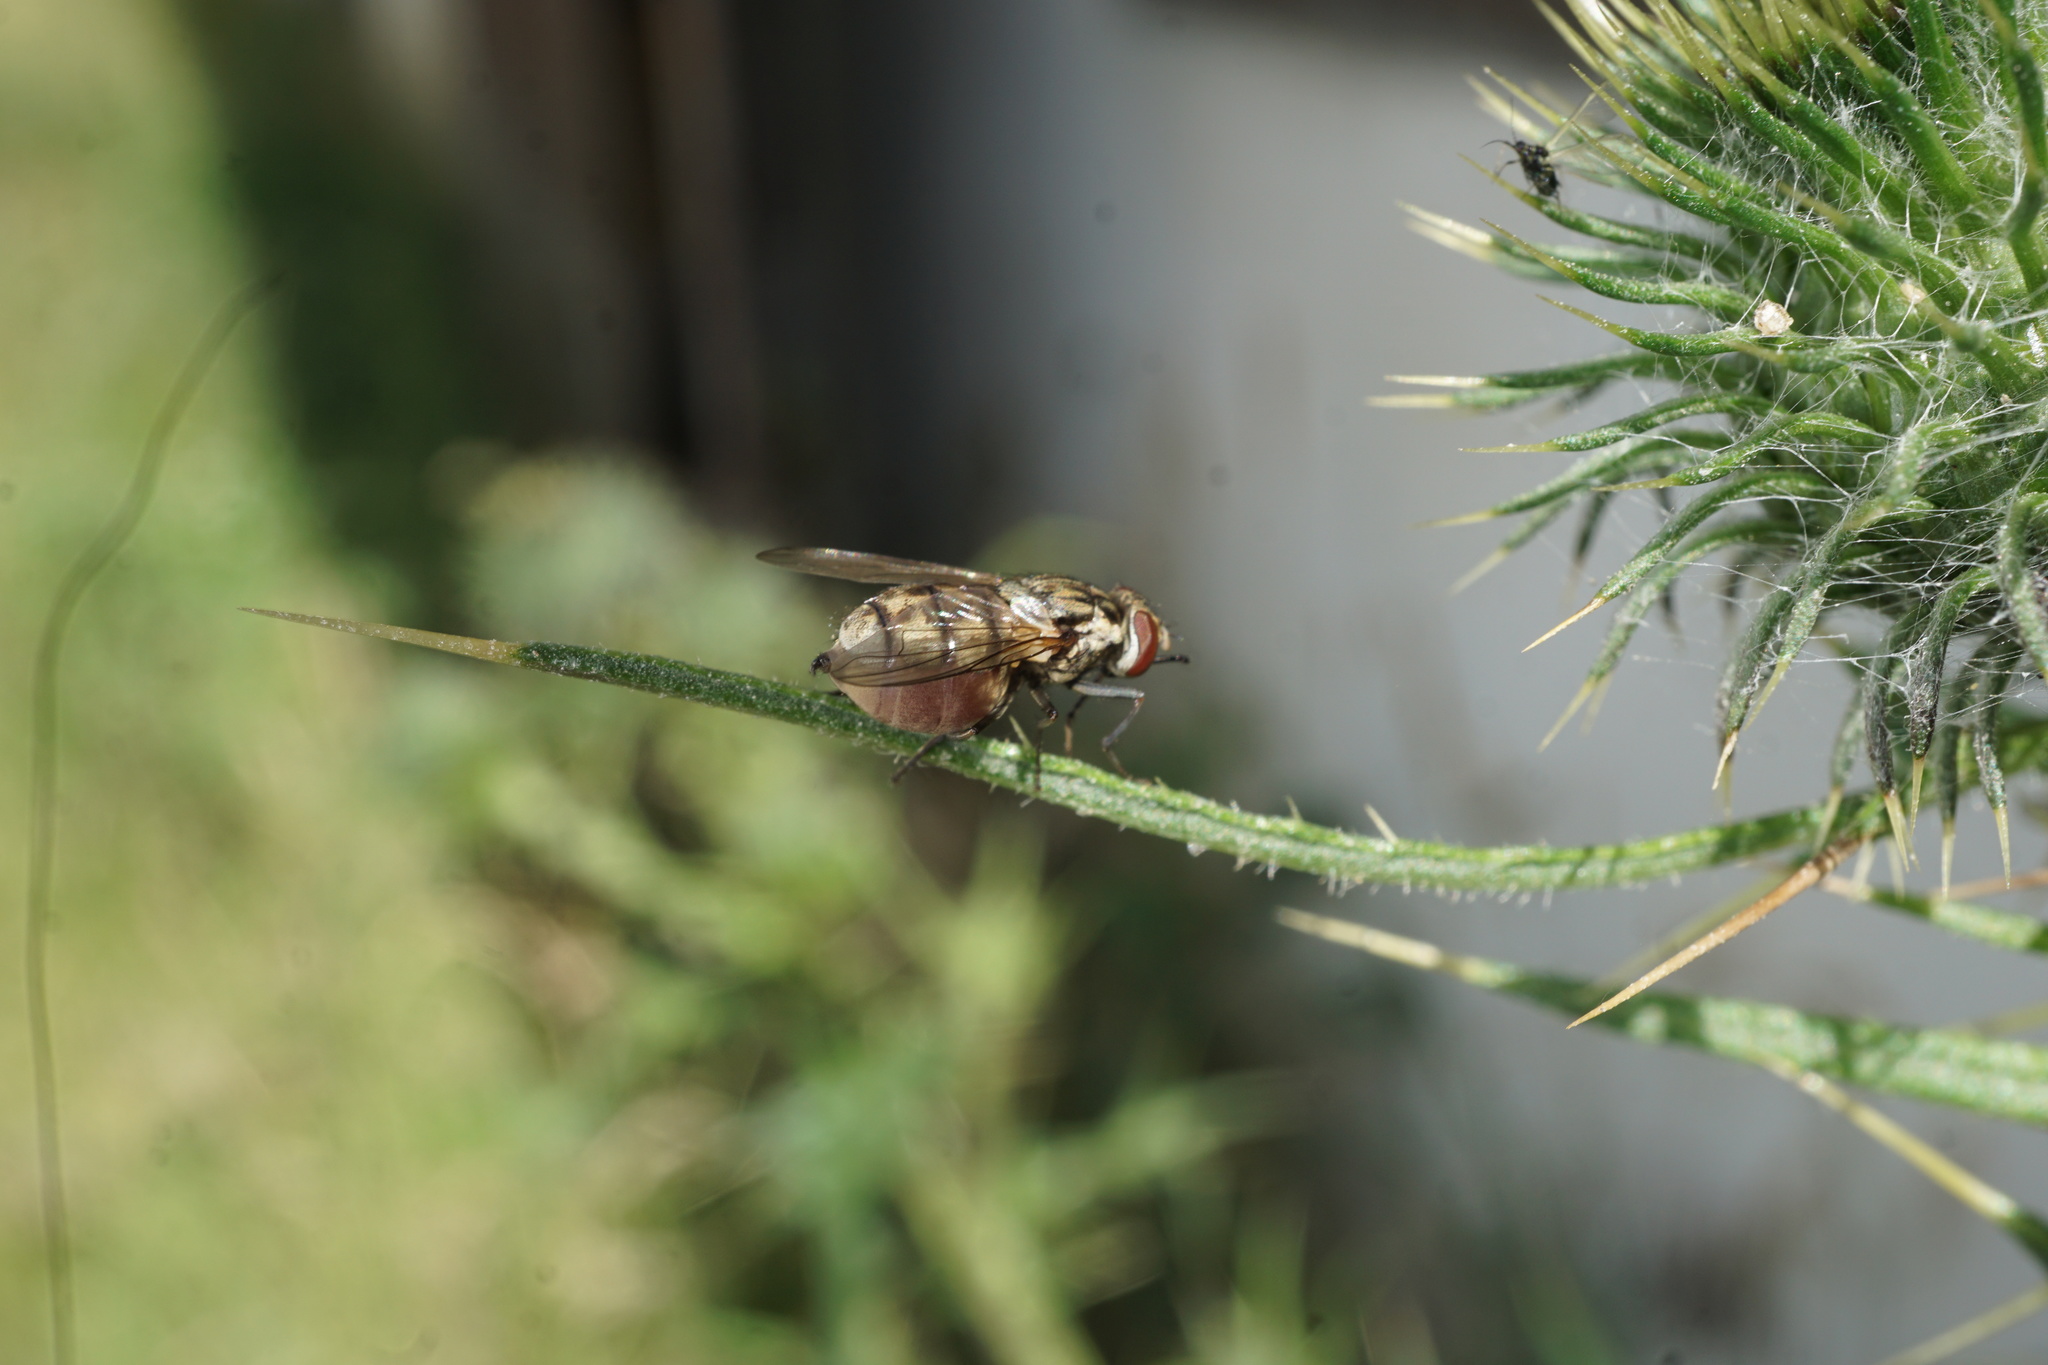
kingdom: Animalia
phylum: Arthropoda
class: Insecta
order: Diptera
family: Muscidae
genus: Stomoxys
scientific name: Stomoxys calcitrans
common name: Stable fly
